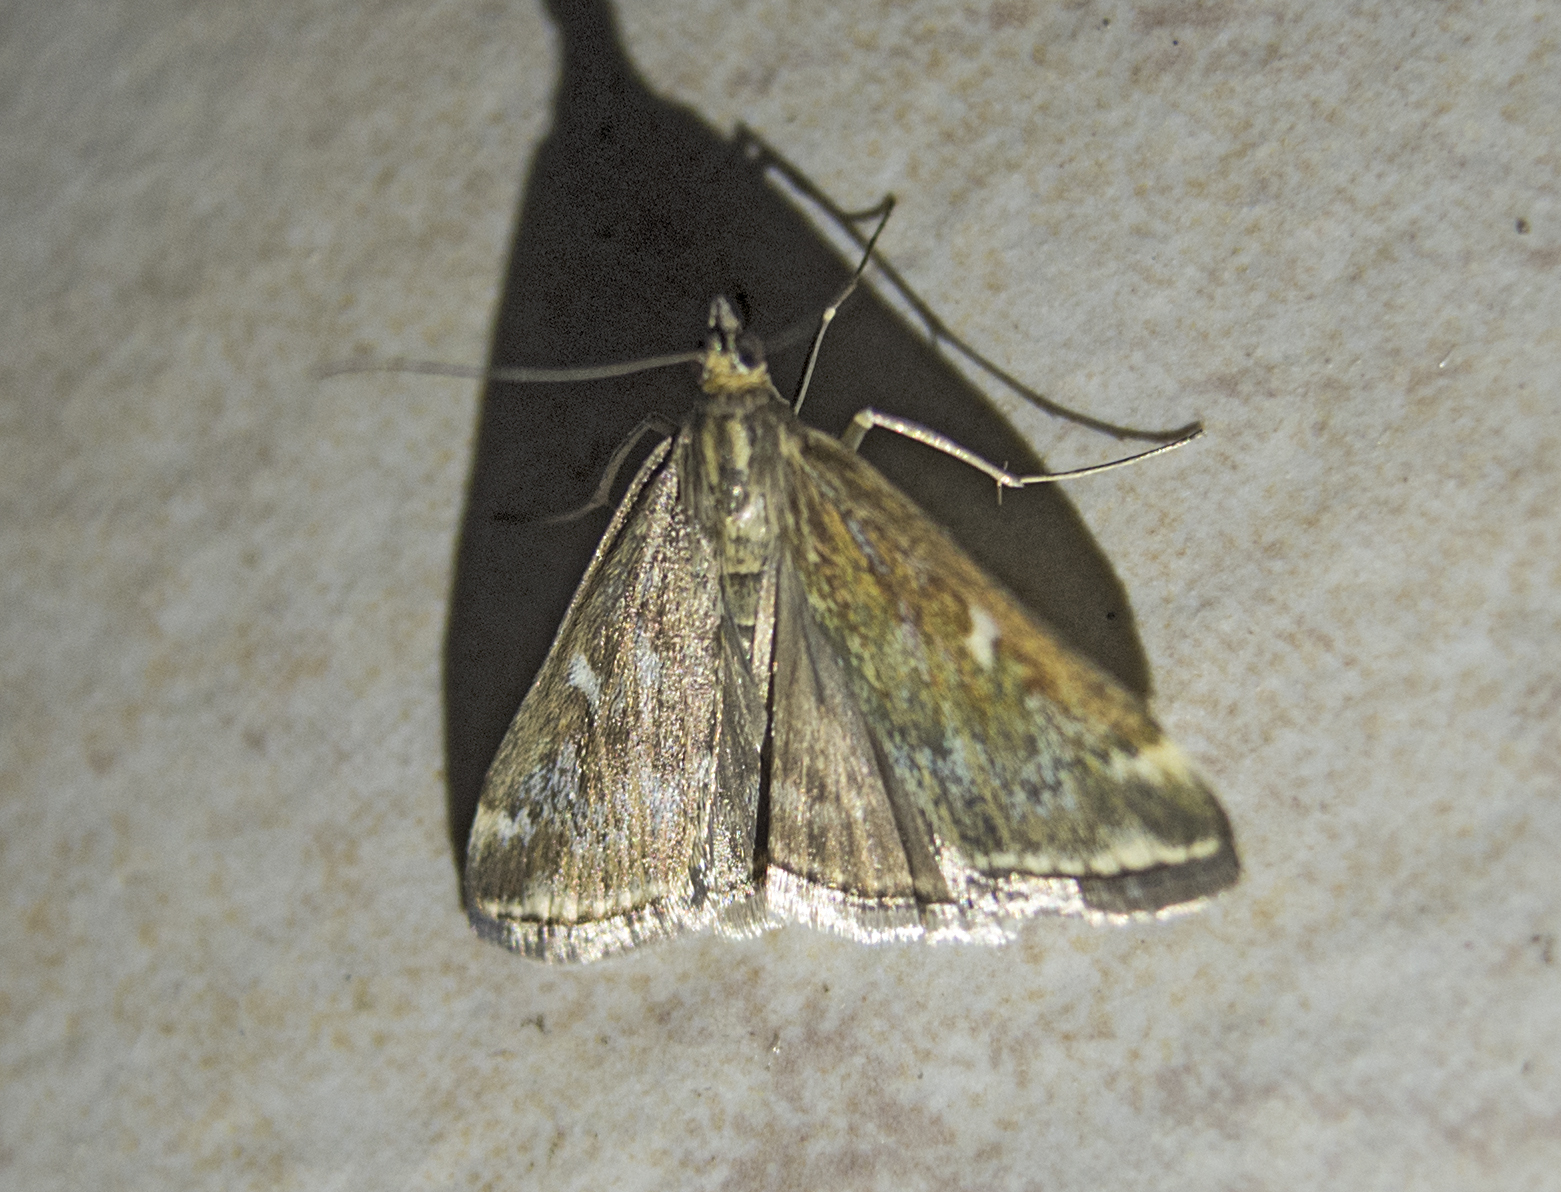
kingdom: Animalia
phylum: Arthropoda
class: Insecta
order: Lepidoptera
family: Crambidae
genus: Loxostege
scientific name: Loxostege sticticalis
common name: Crambid moth
